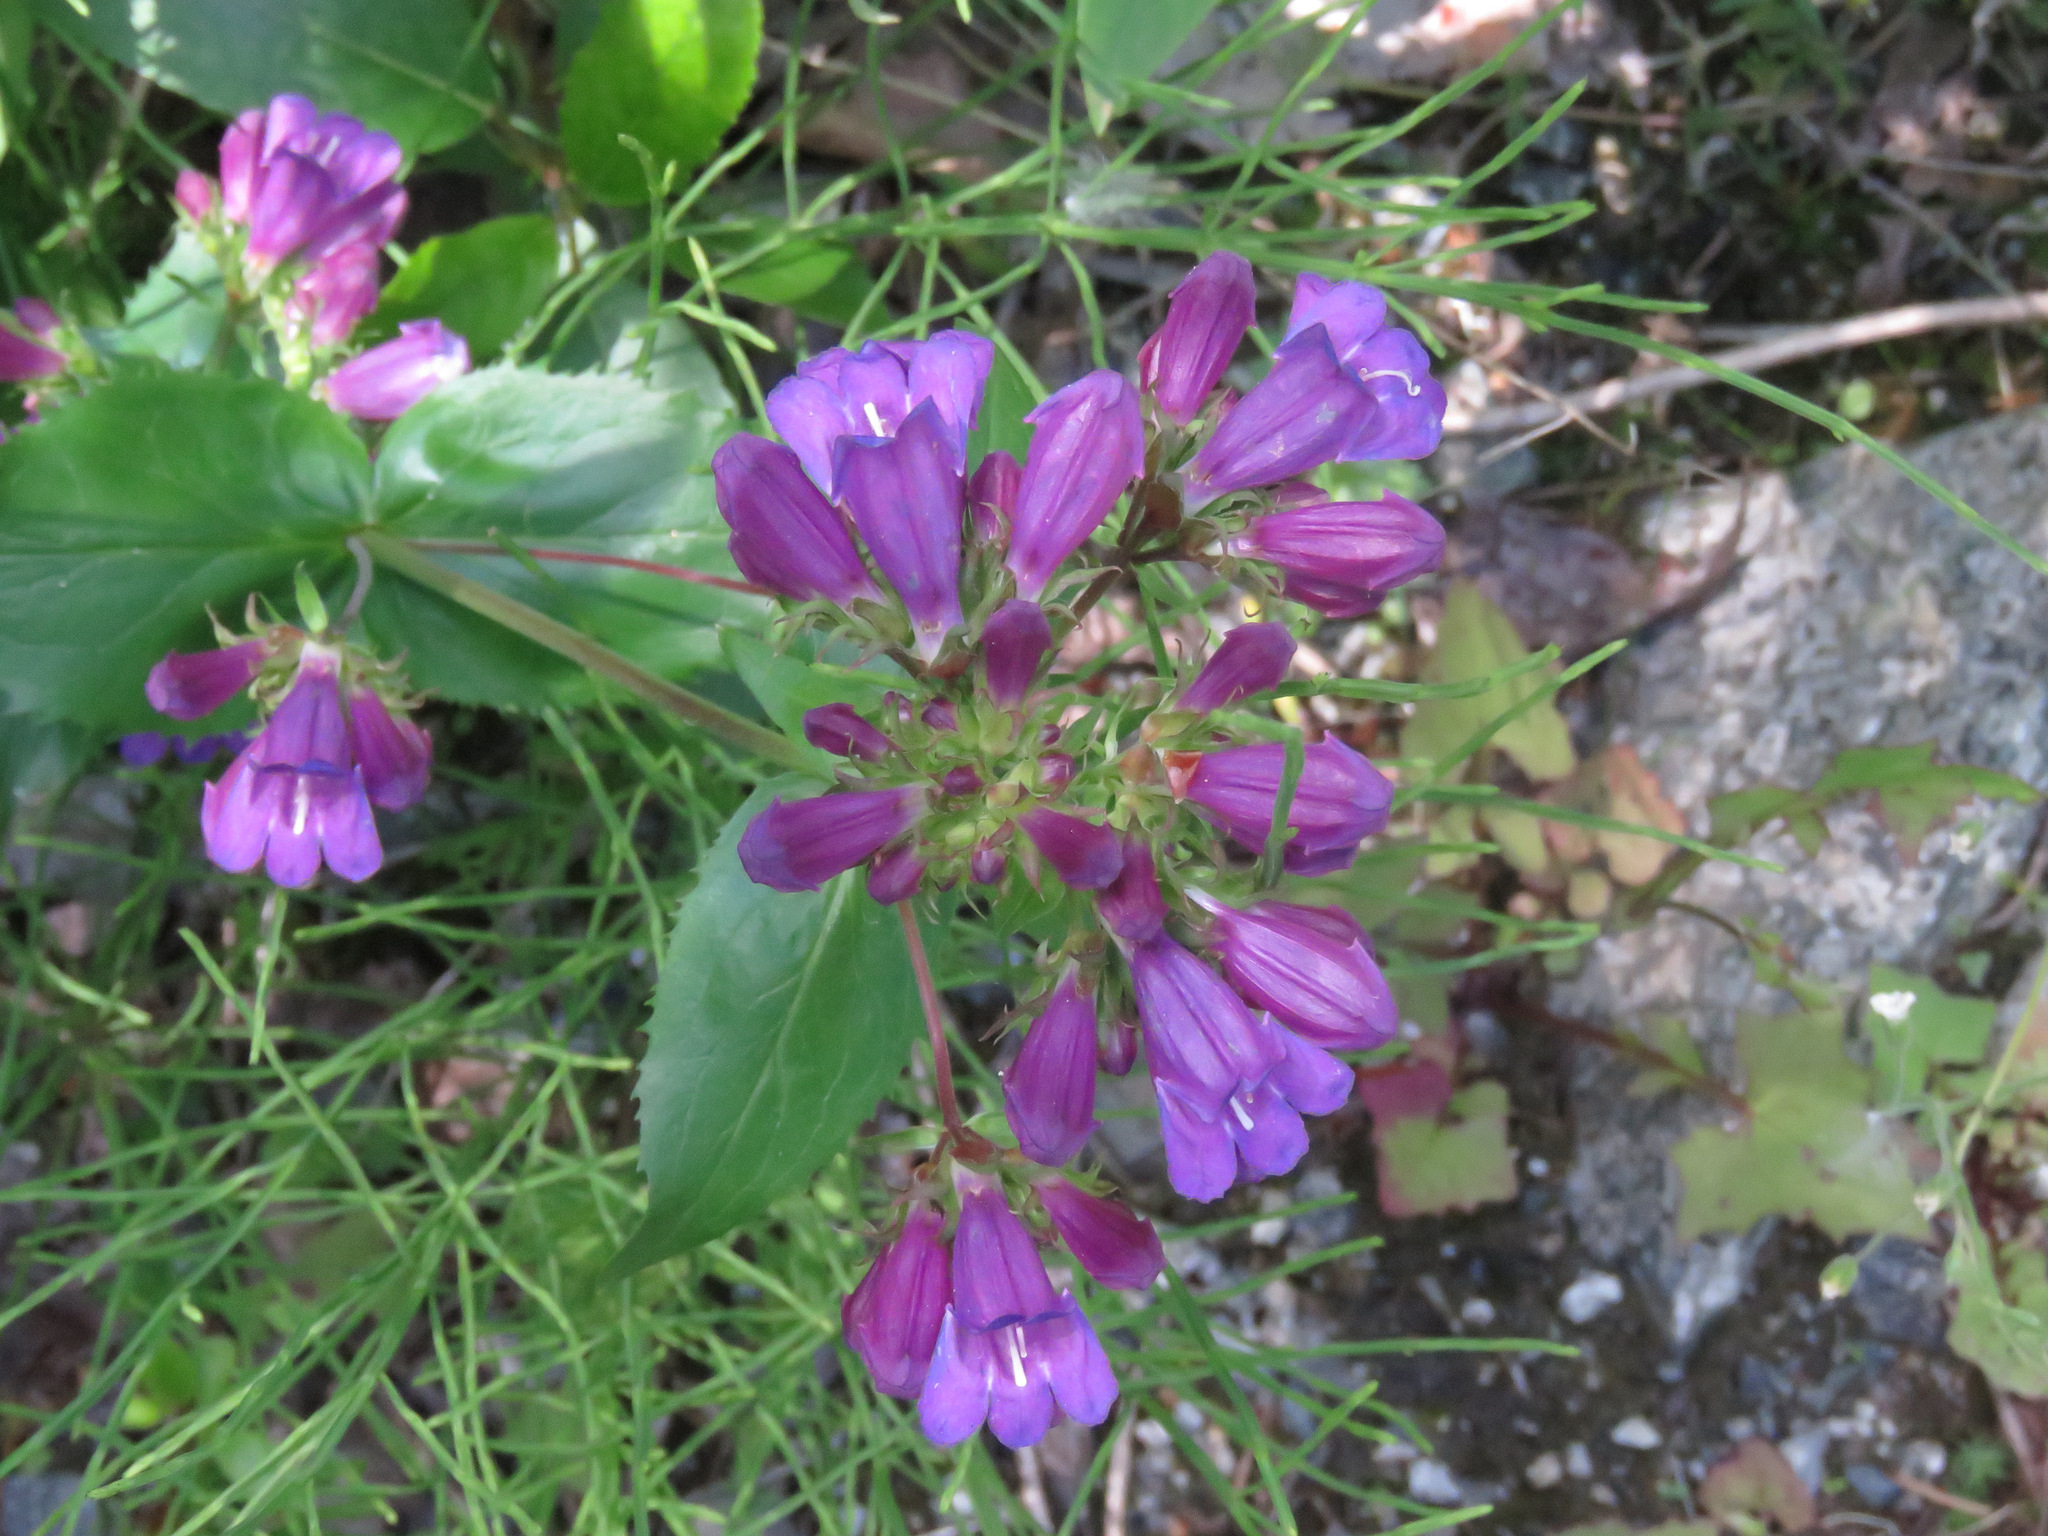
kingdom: Plantae
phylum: Tracheophyta
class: Magnoliopsida
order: Lamiales
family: Plantaginaceae
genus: Penstemon
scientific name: Penstemon serrulatus
